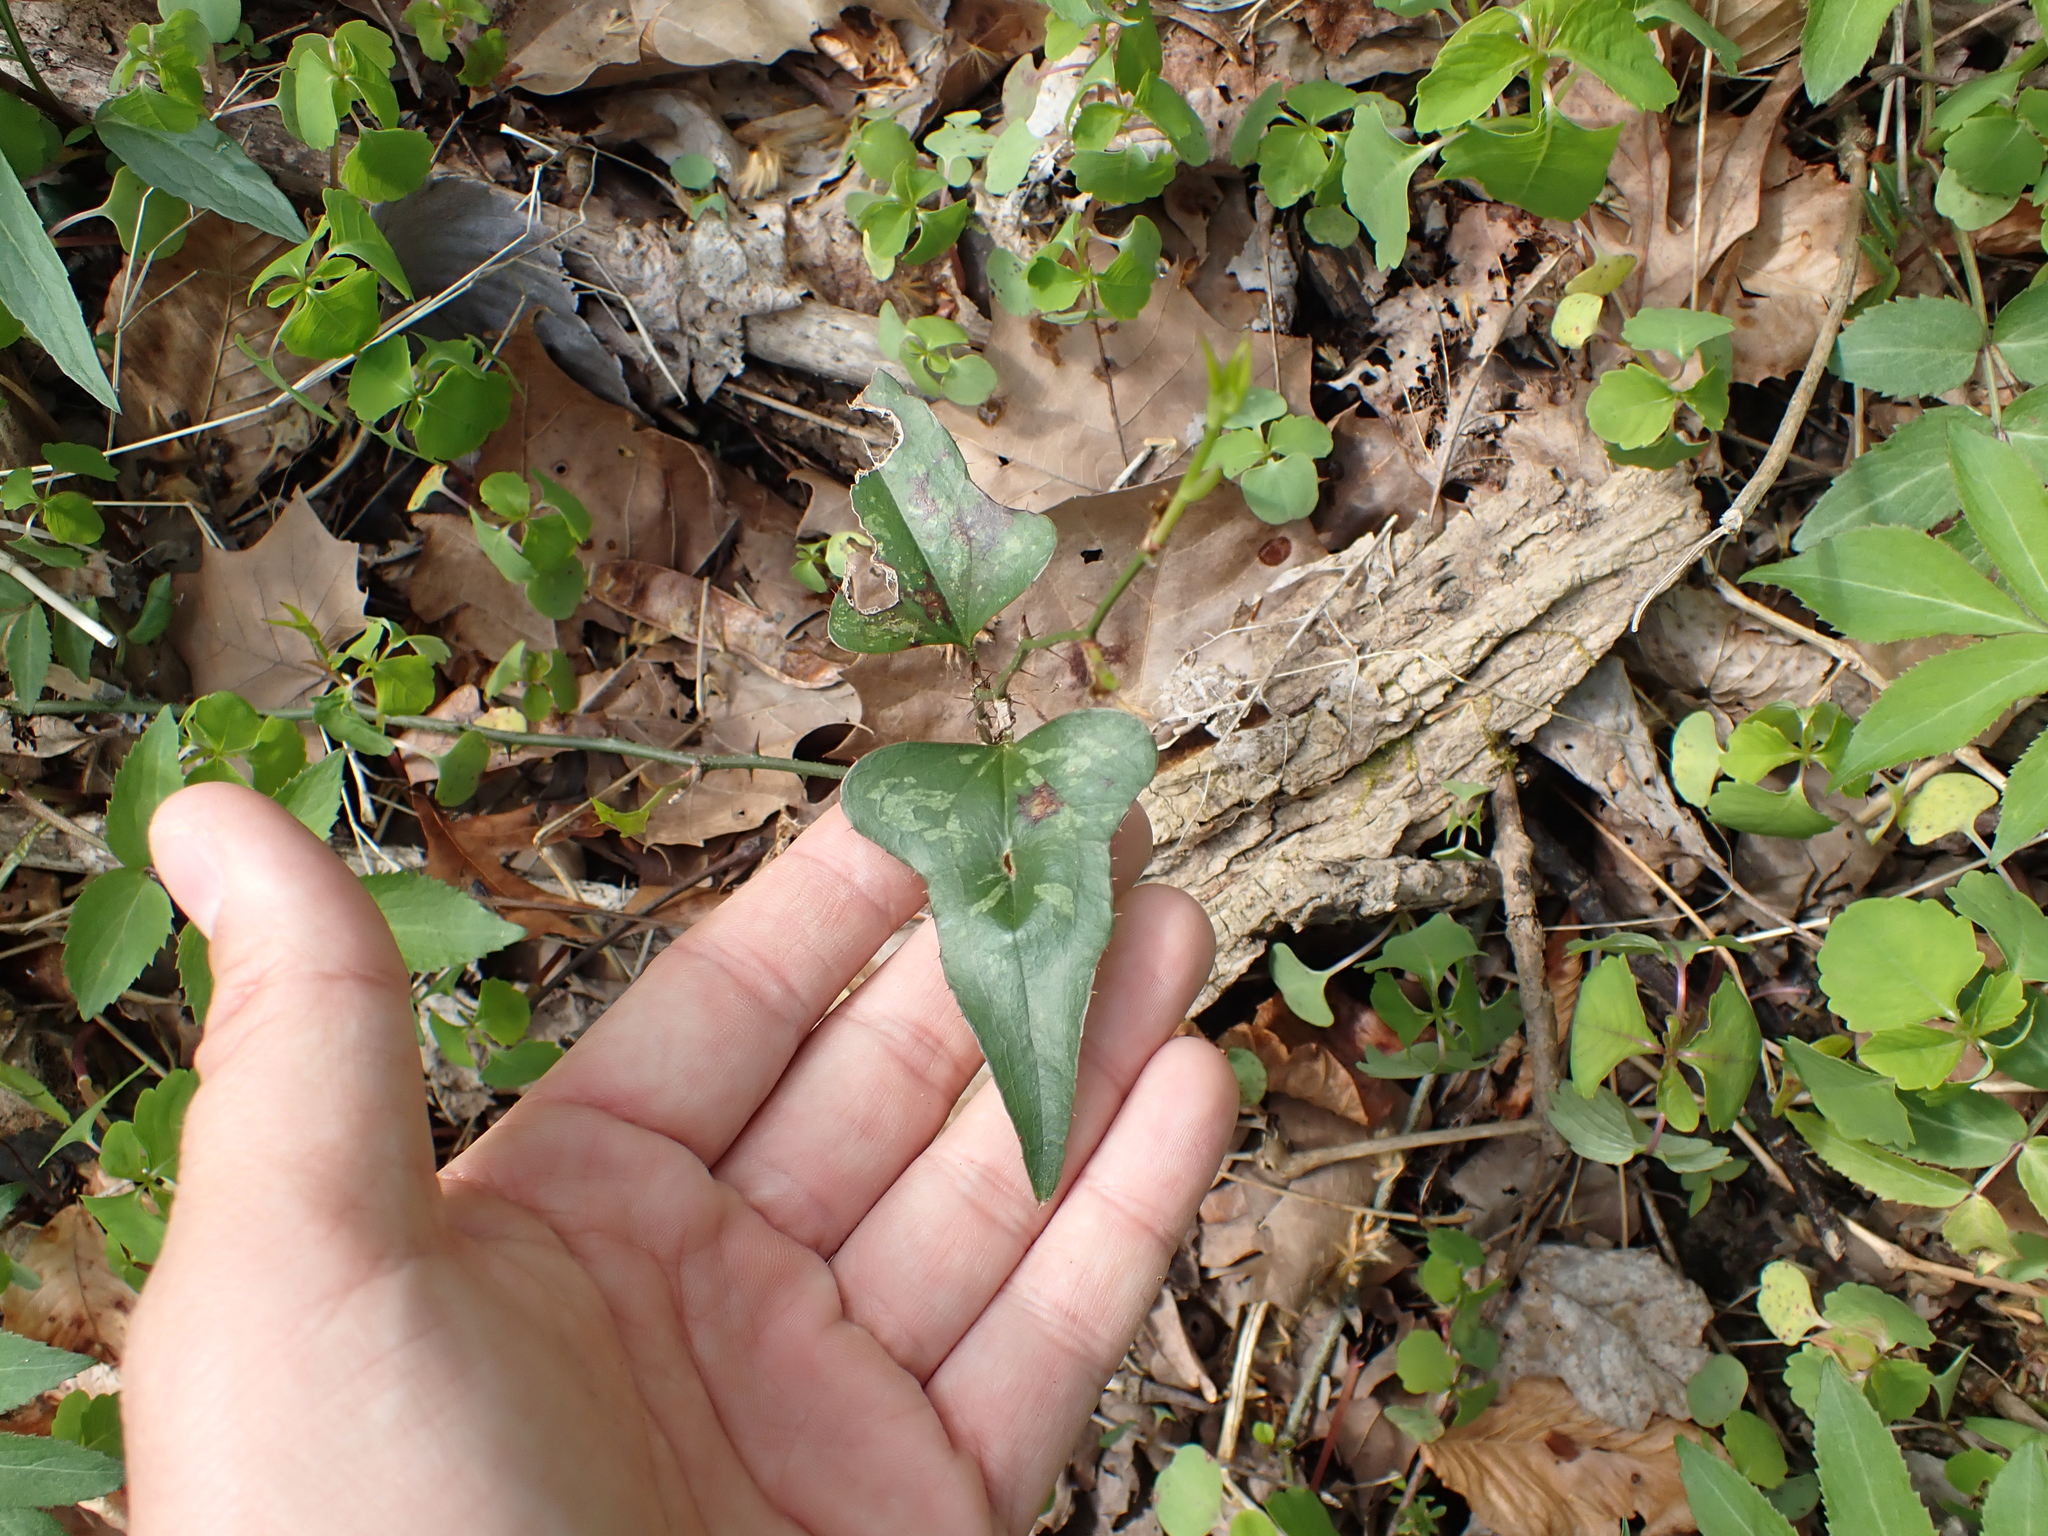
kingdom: Plantae
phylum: Tracheophyta
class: Liliopsida
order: Liliales
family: Smilacaceae
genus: Smilax
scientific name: Smilax bona-nox
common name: Catbrier
